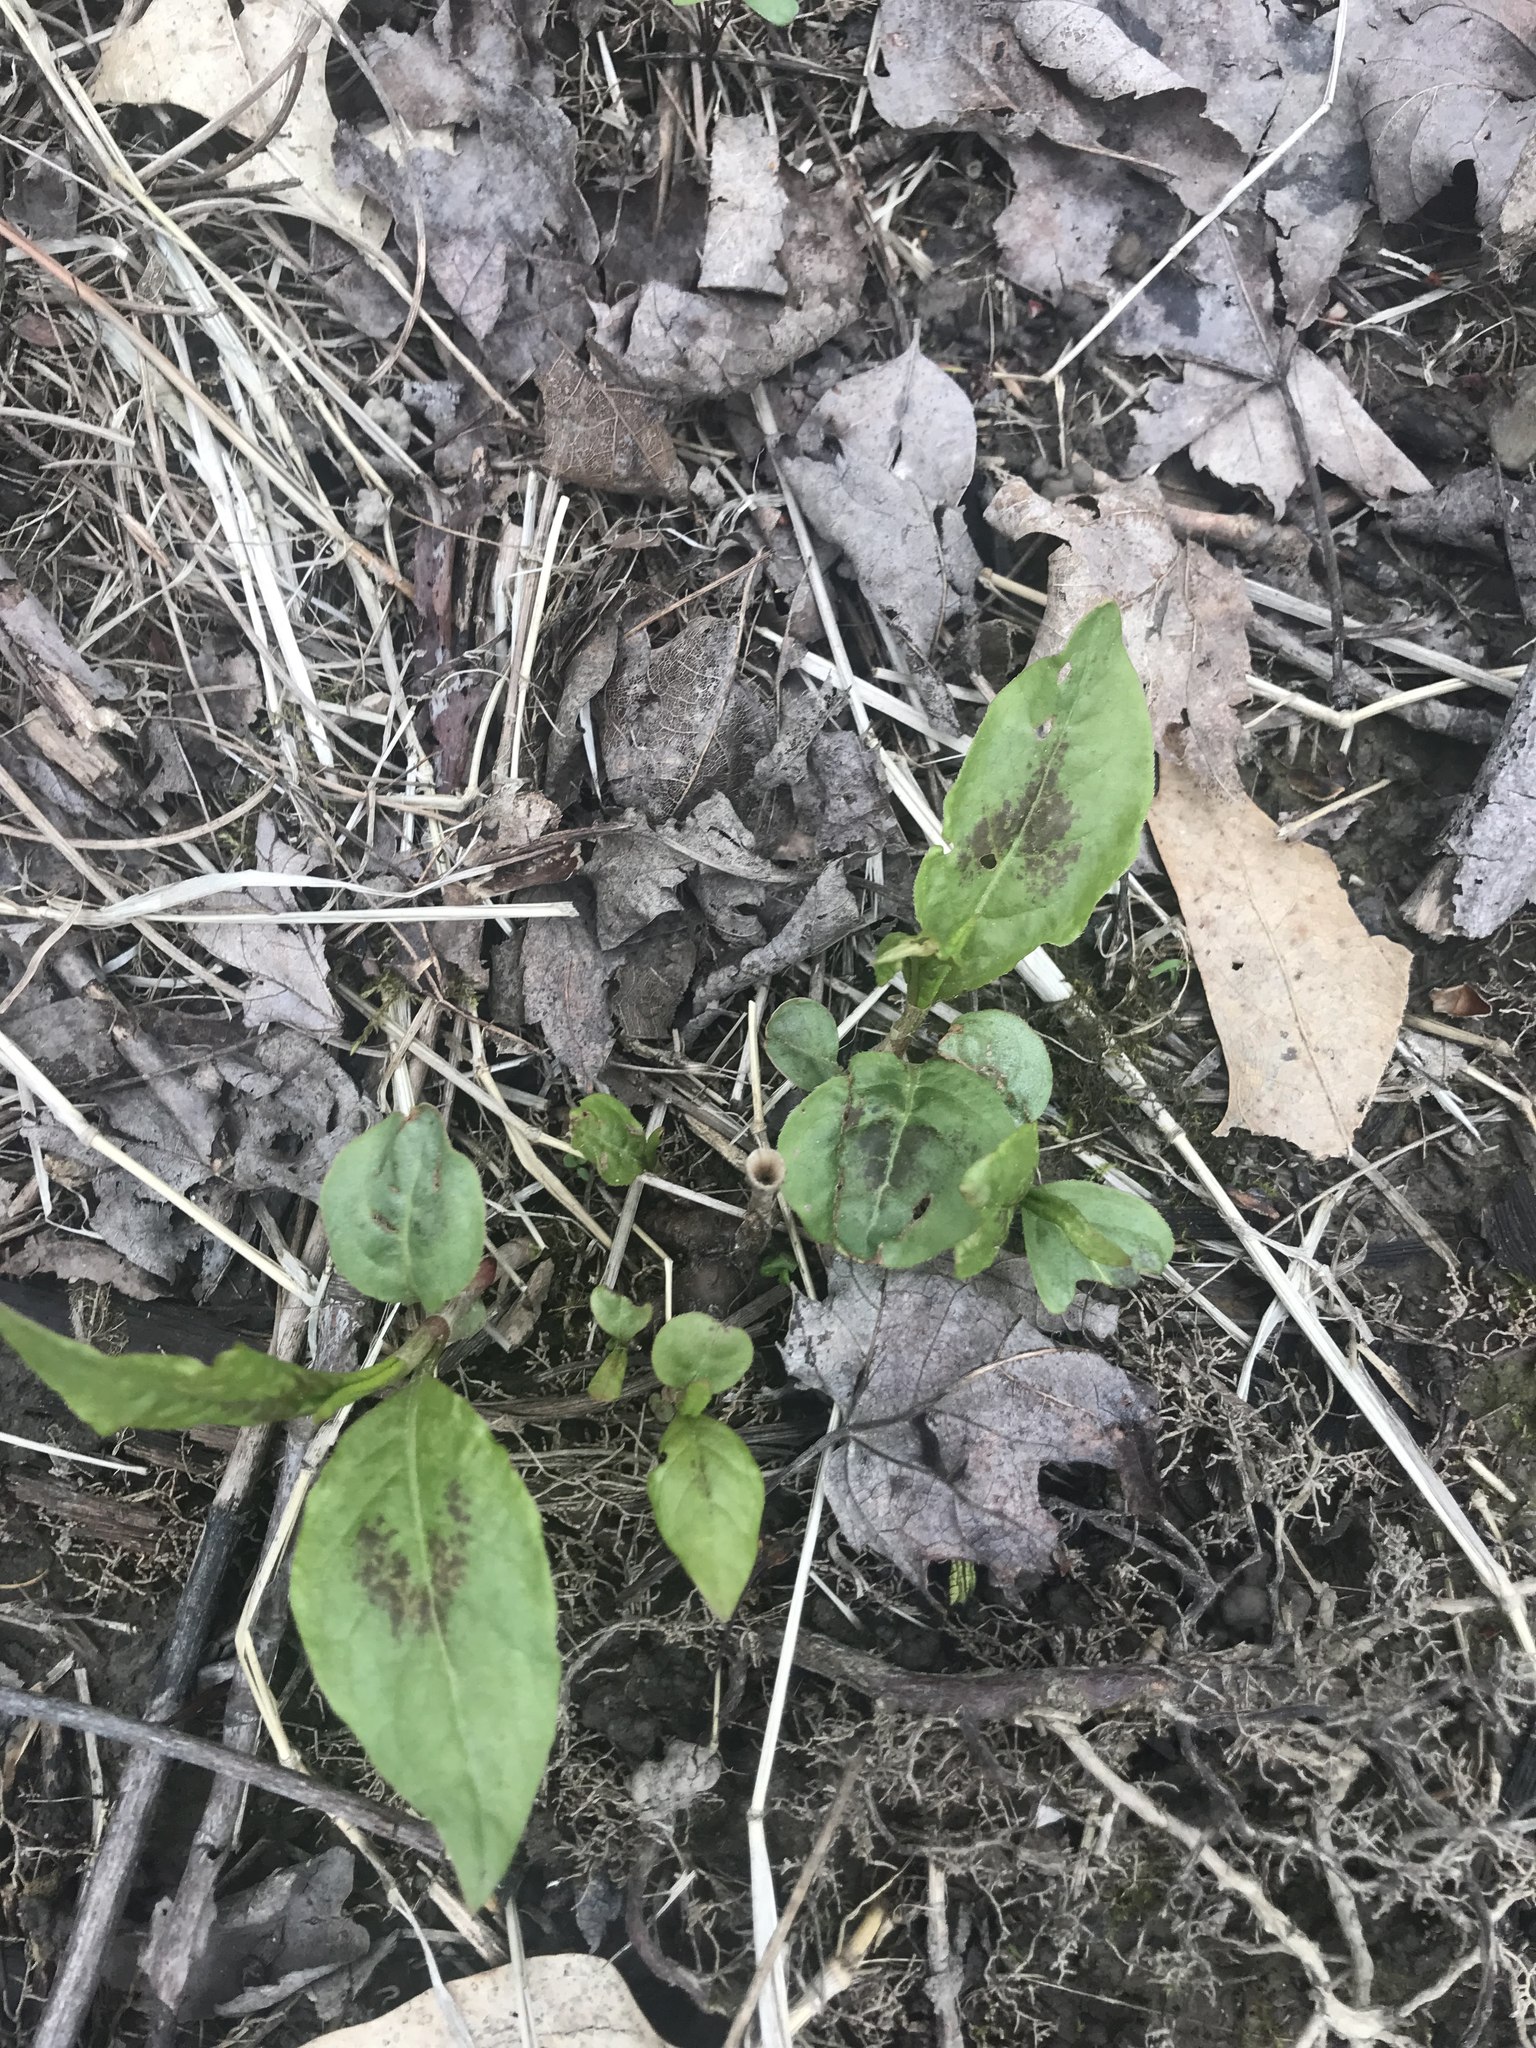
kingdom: Plantae
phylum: Tracheophyta
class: Magnoliopsida
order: Caryophyllales
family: Polygonaceae
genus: Persicaria
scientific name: Persicaria virginiana
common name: Jumpseed
